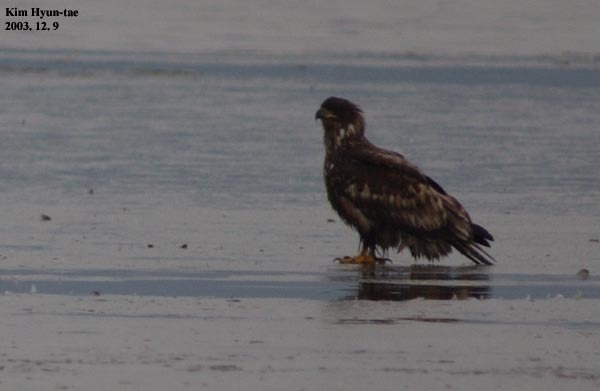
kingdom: Animalia
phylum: Chordata
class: Aves
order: Accipitriformes
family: Accipitridae
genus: Haliaeetus
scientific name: Haliaeetus albicilla
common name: White-tailed eagle
